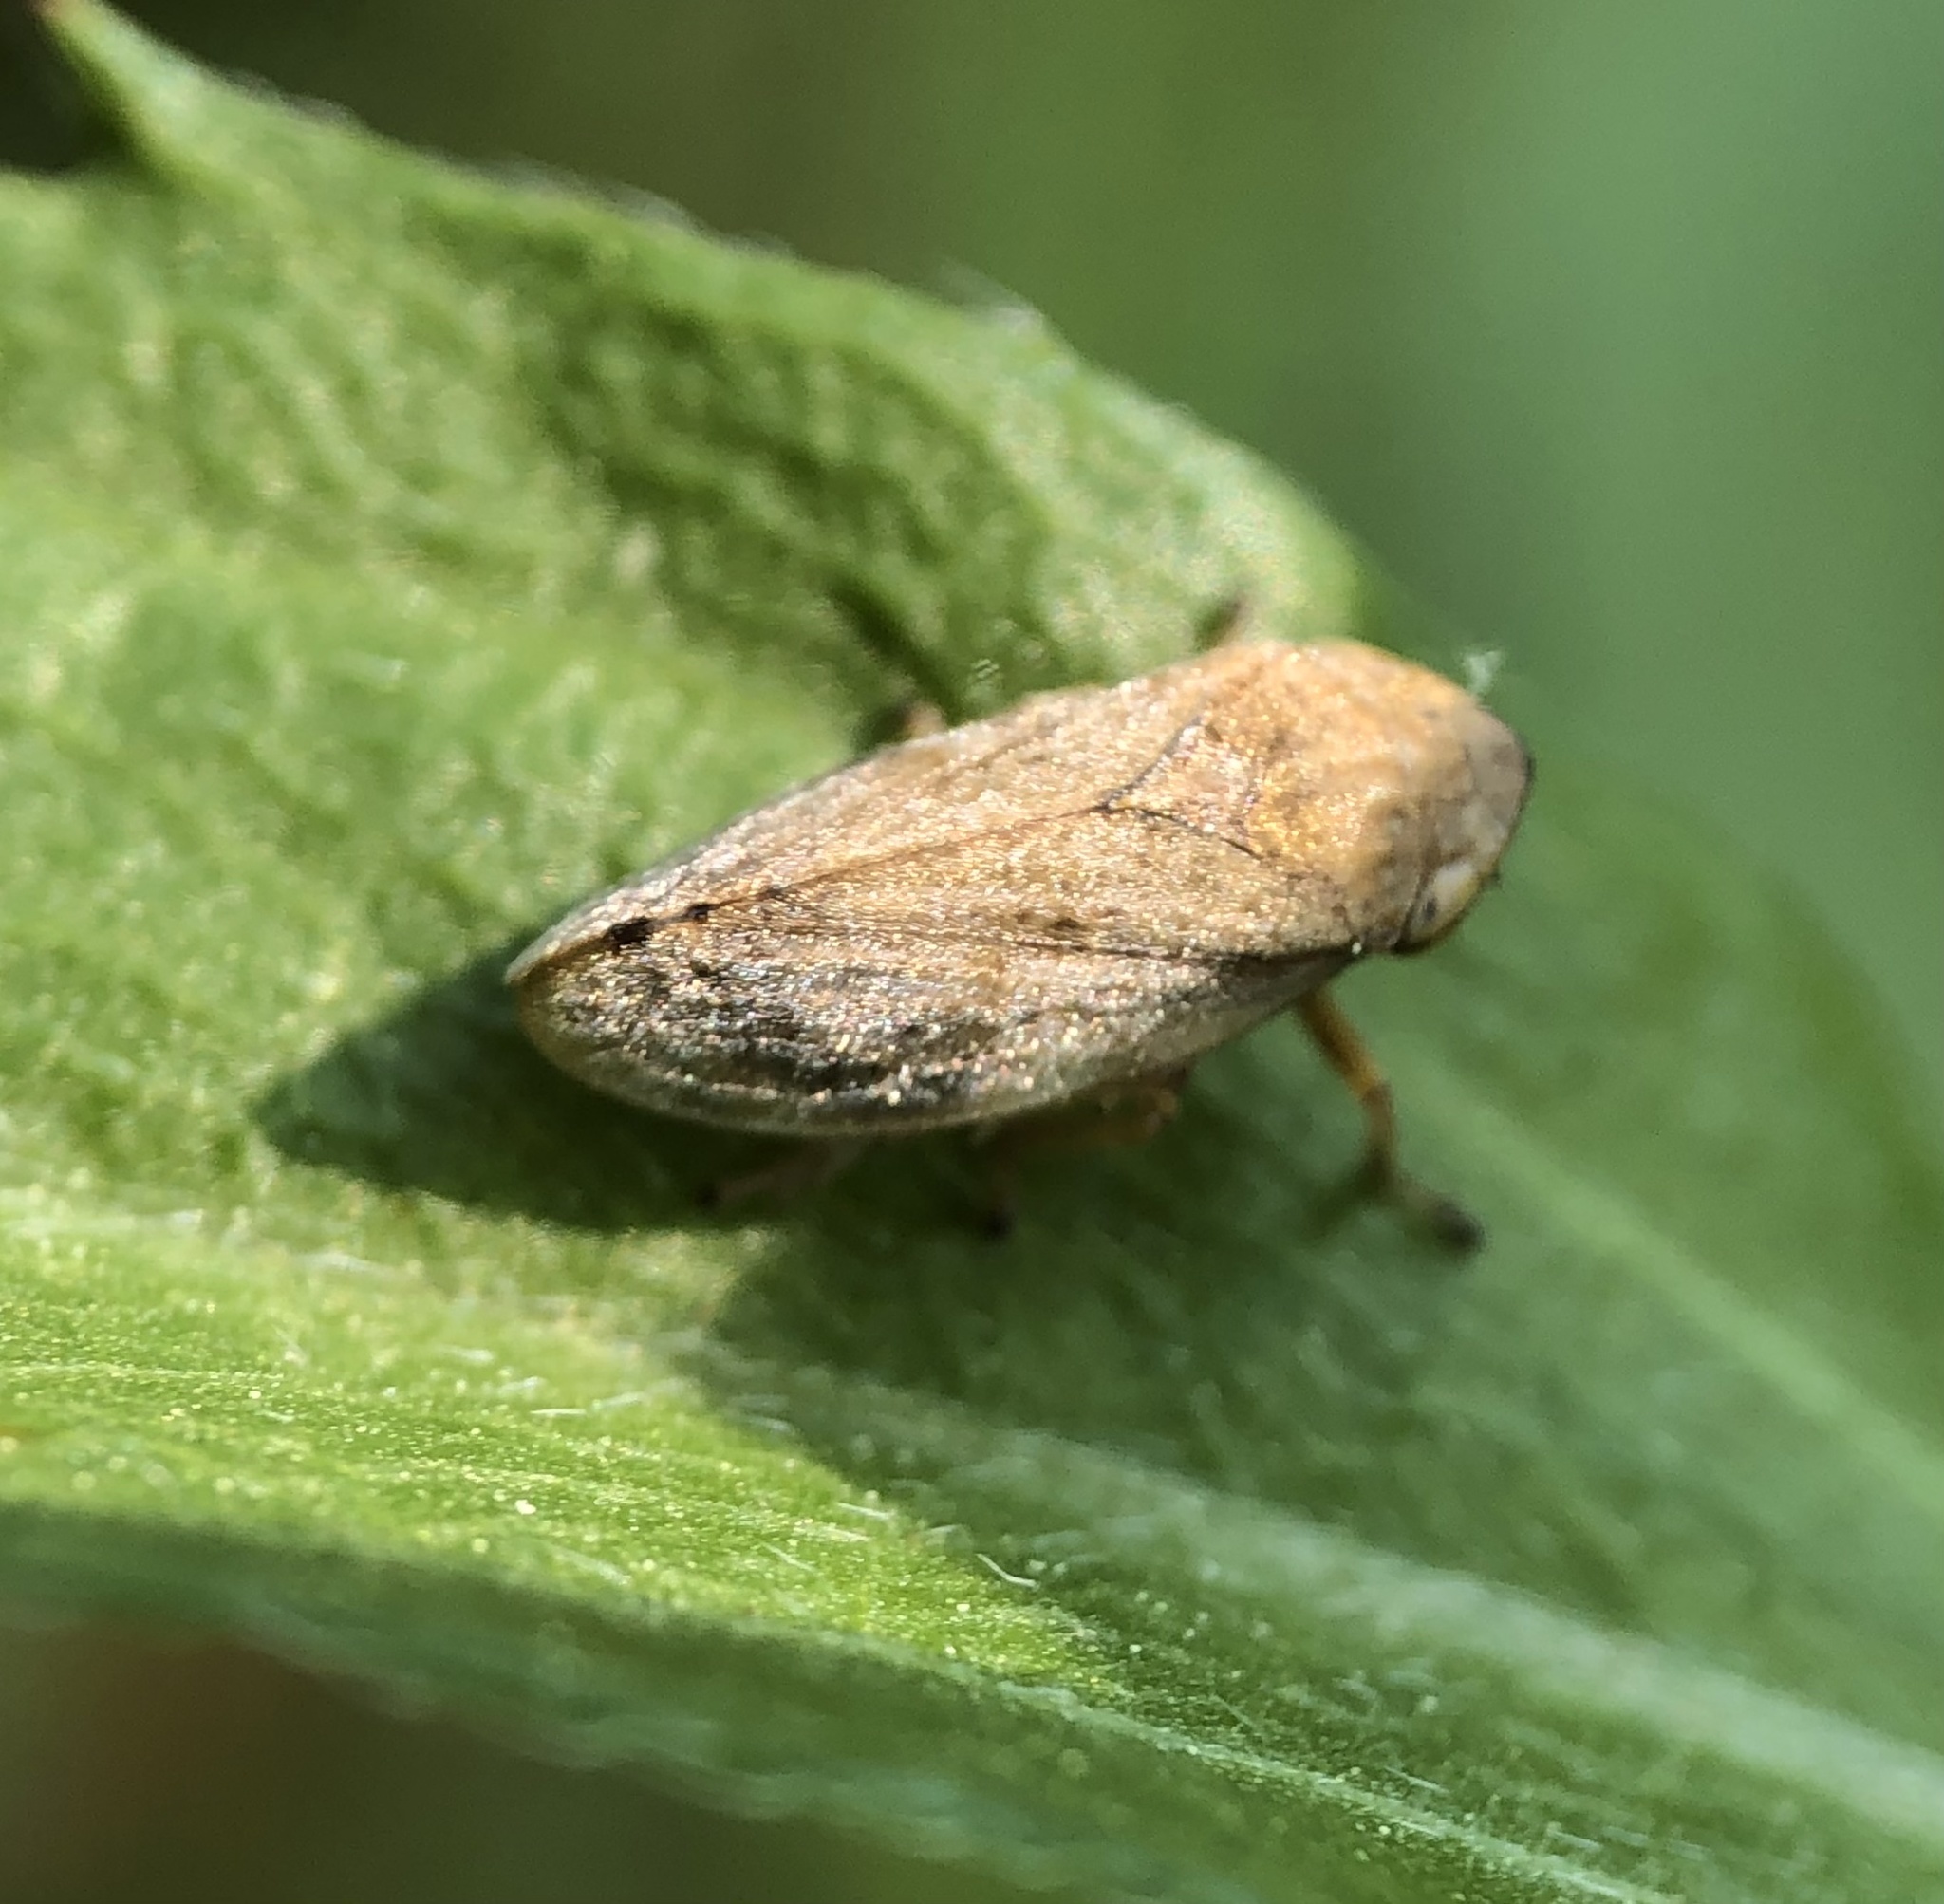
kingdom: Animalia
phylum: Arthropoda
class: Insecta
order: Hemiptera
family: Aphrophoridae
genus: Philaenus
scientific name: Philaenus spumarius
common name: Meadow spittlebug
